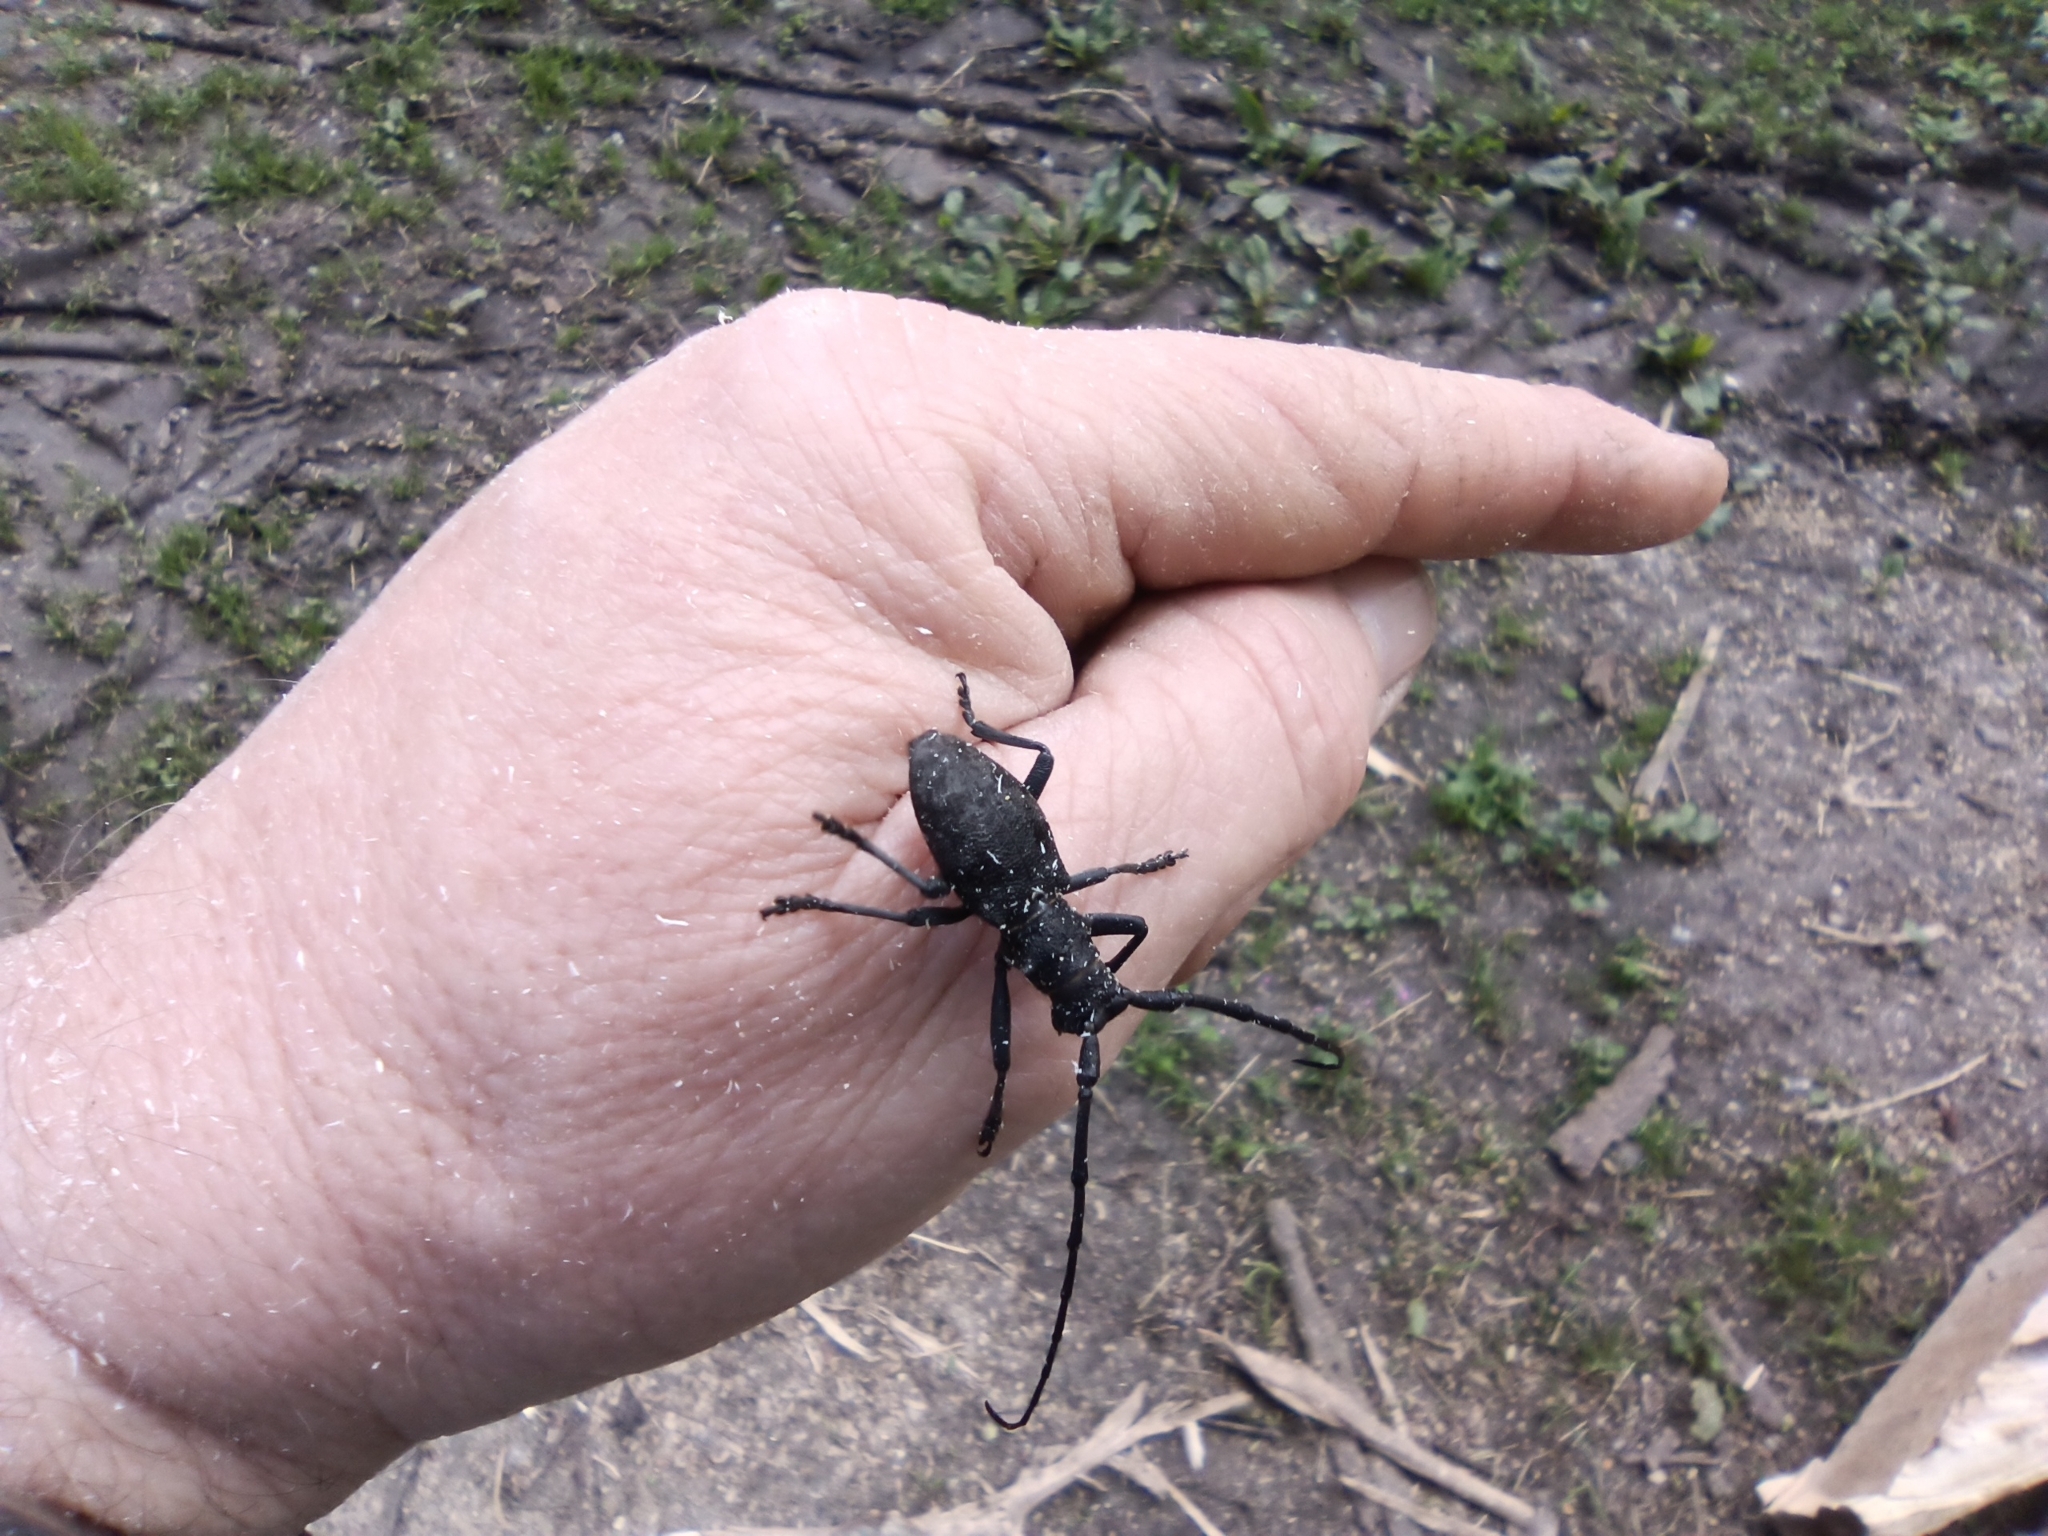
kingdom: Animalia
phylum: Arthropoda
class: Insecta
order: Coleoptera
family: Cerambycidae
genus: Morimus
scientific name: Morimus asper
